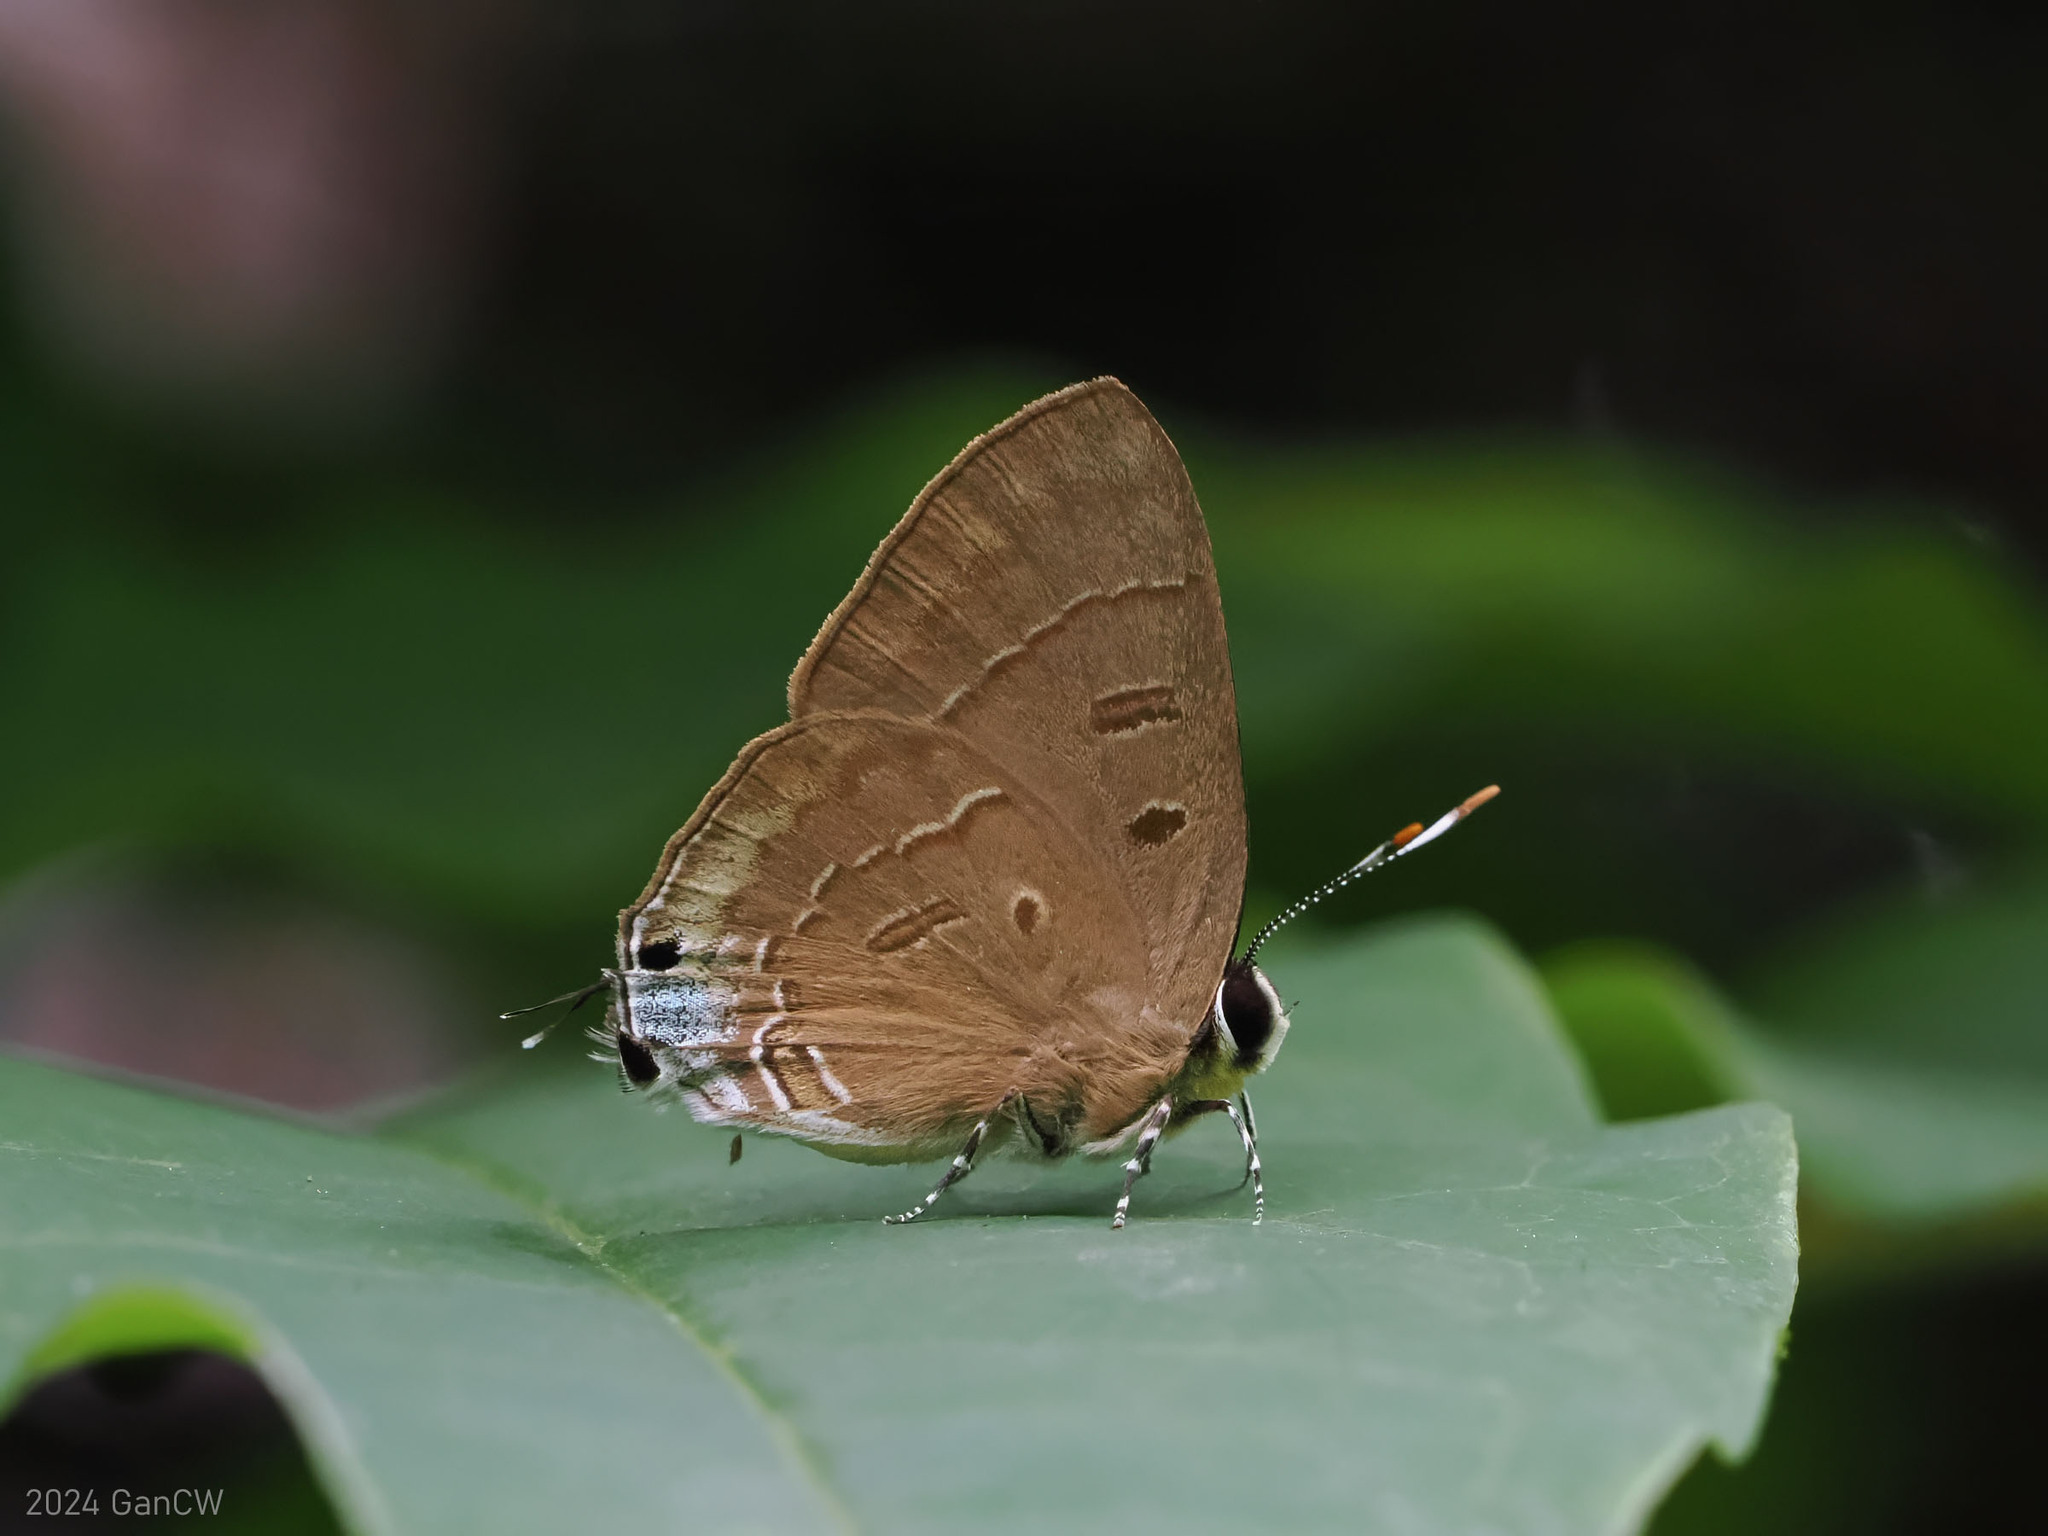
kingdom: Animalia
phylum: Arthropoda
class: Insecta
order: Lepidoptera
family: Lycaenidae
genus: Rapala
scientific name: Rapala pheretima
